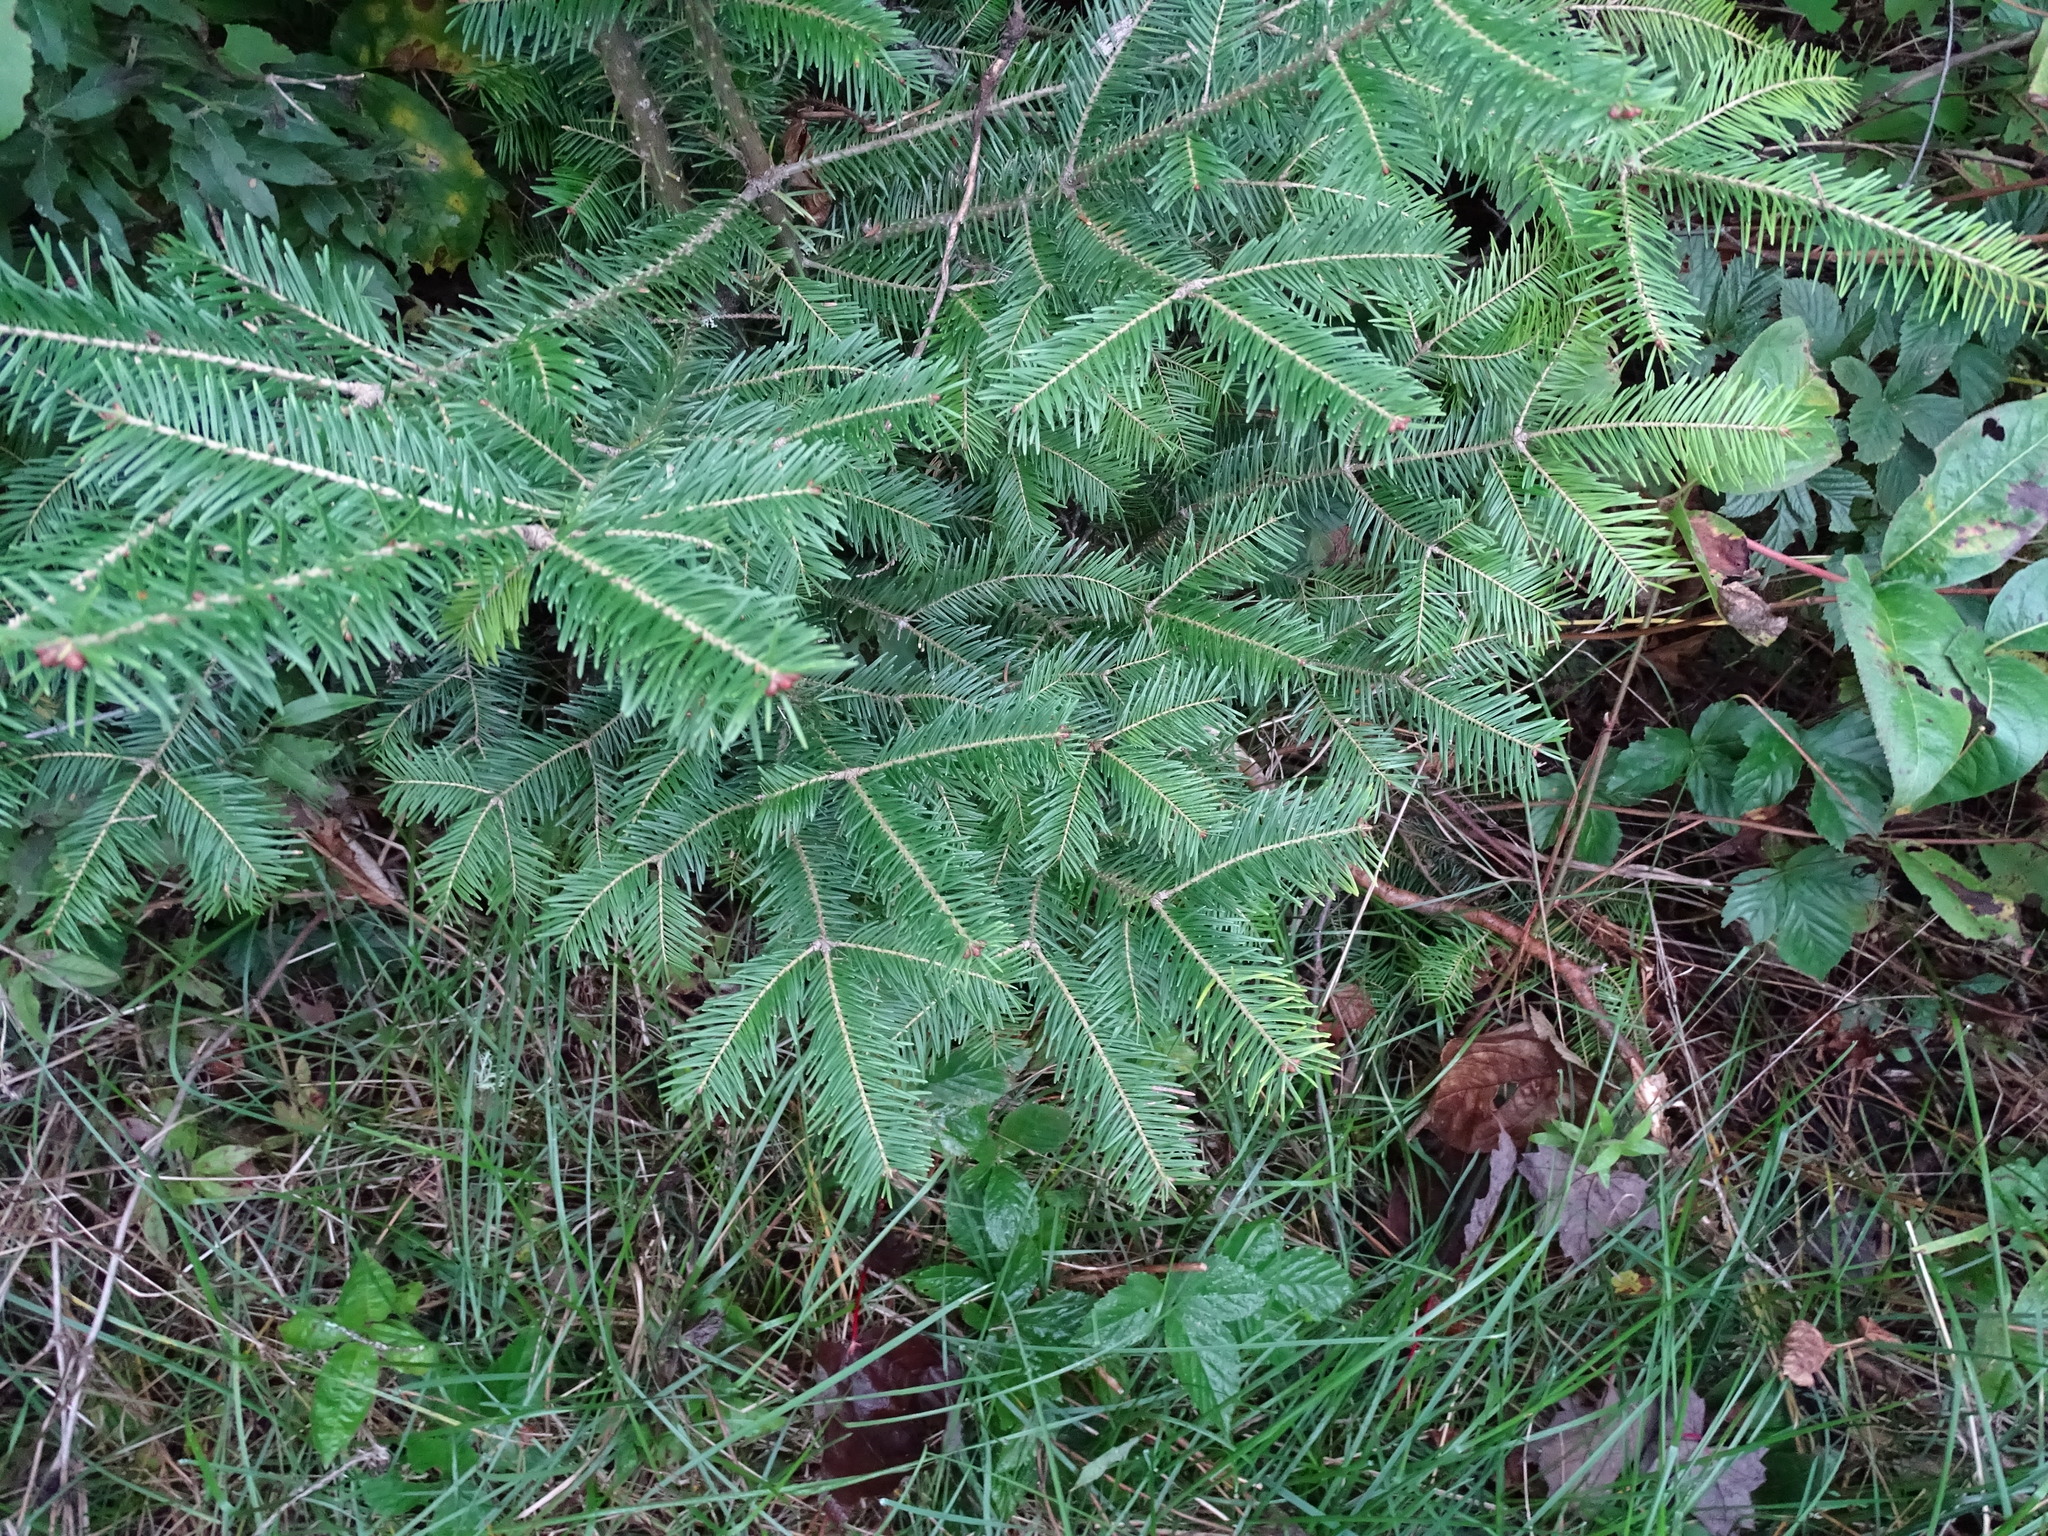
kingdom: Plantae
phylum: Tracheophyta
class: Pinopsida
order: Pinales
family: Pinaceae
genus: Abies
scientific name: Abies balsamea
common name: Balsam fir
